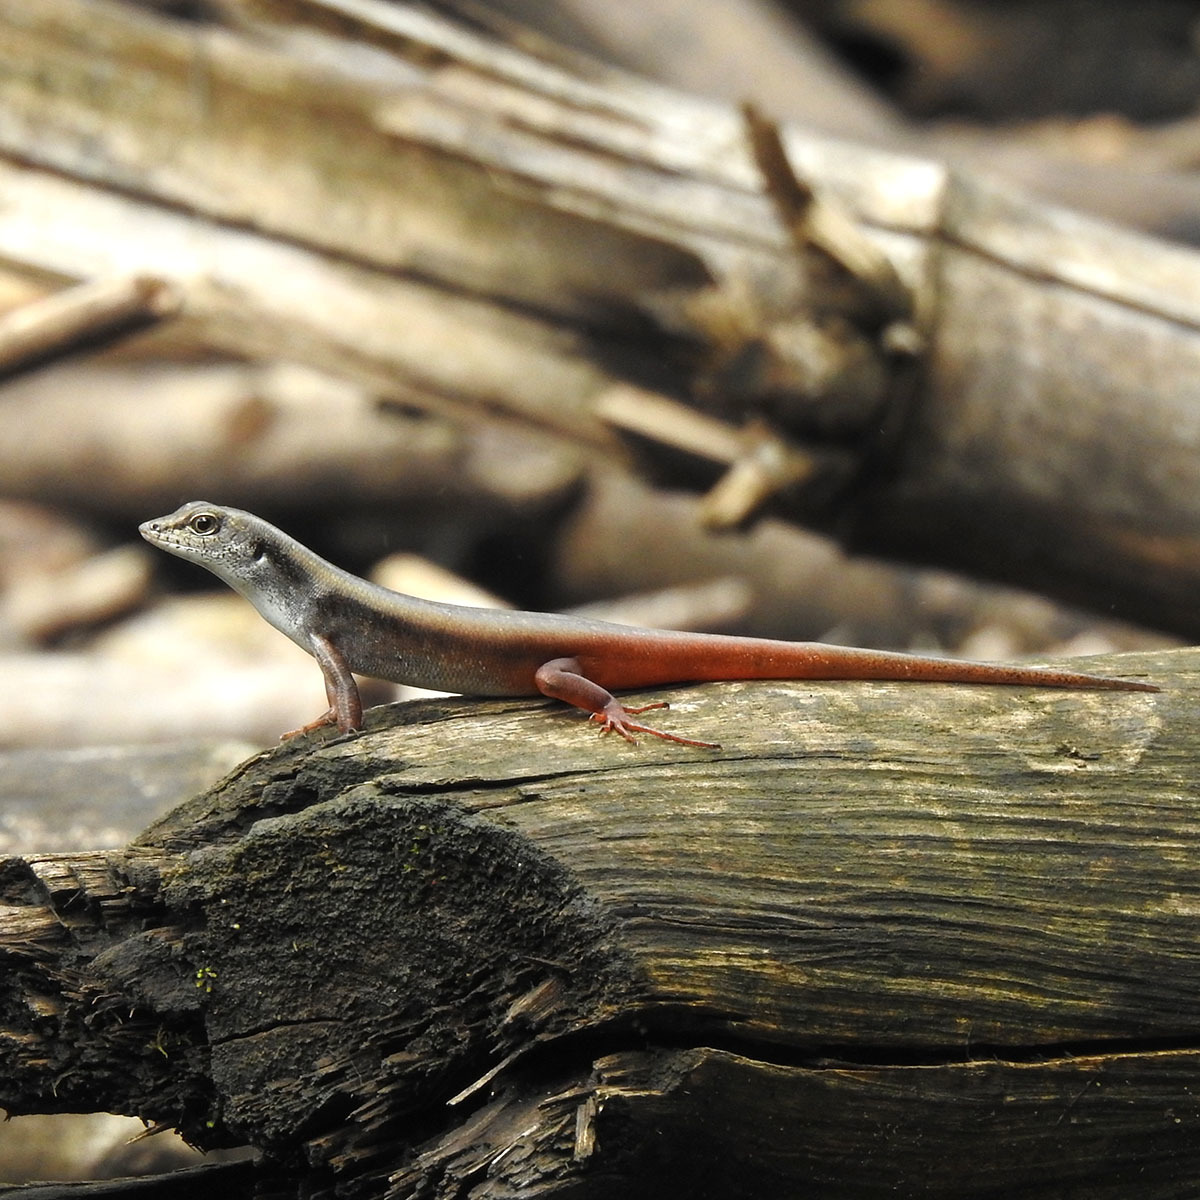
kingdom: Animalia
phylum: Chordata
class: Squamata
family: Scincidae
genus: Sphenomorphus
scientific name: Sphenomorphus dussumieri
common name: Dussumier's forest skink
